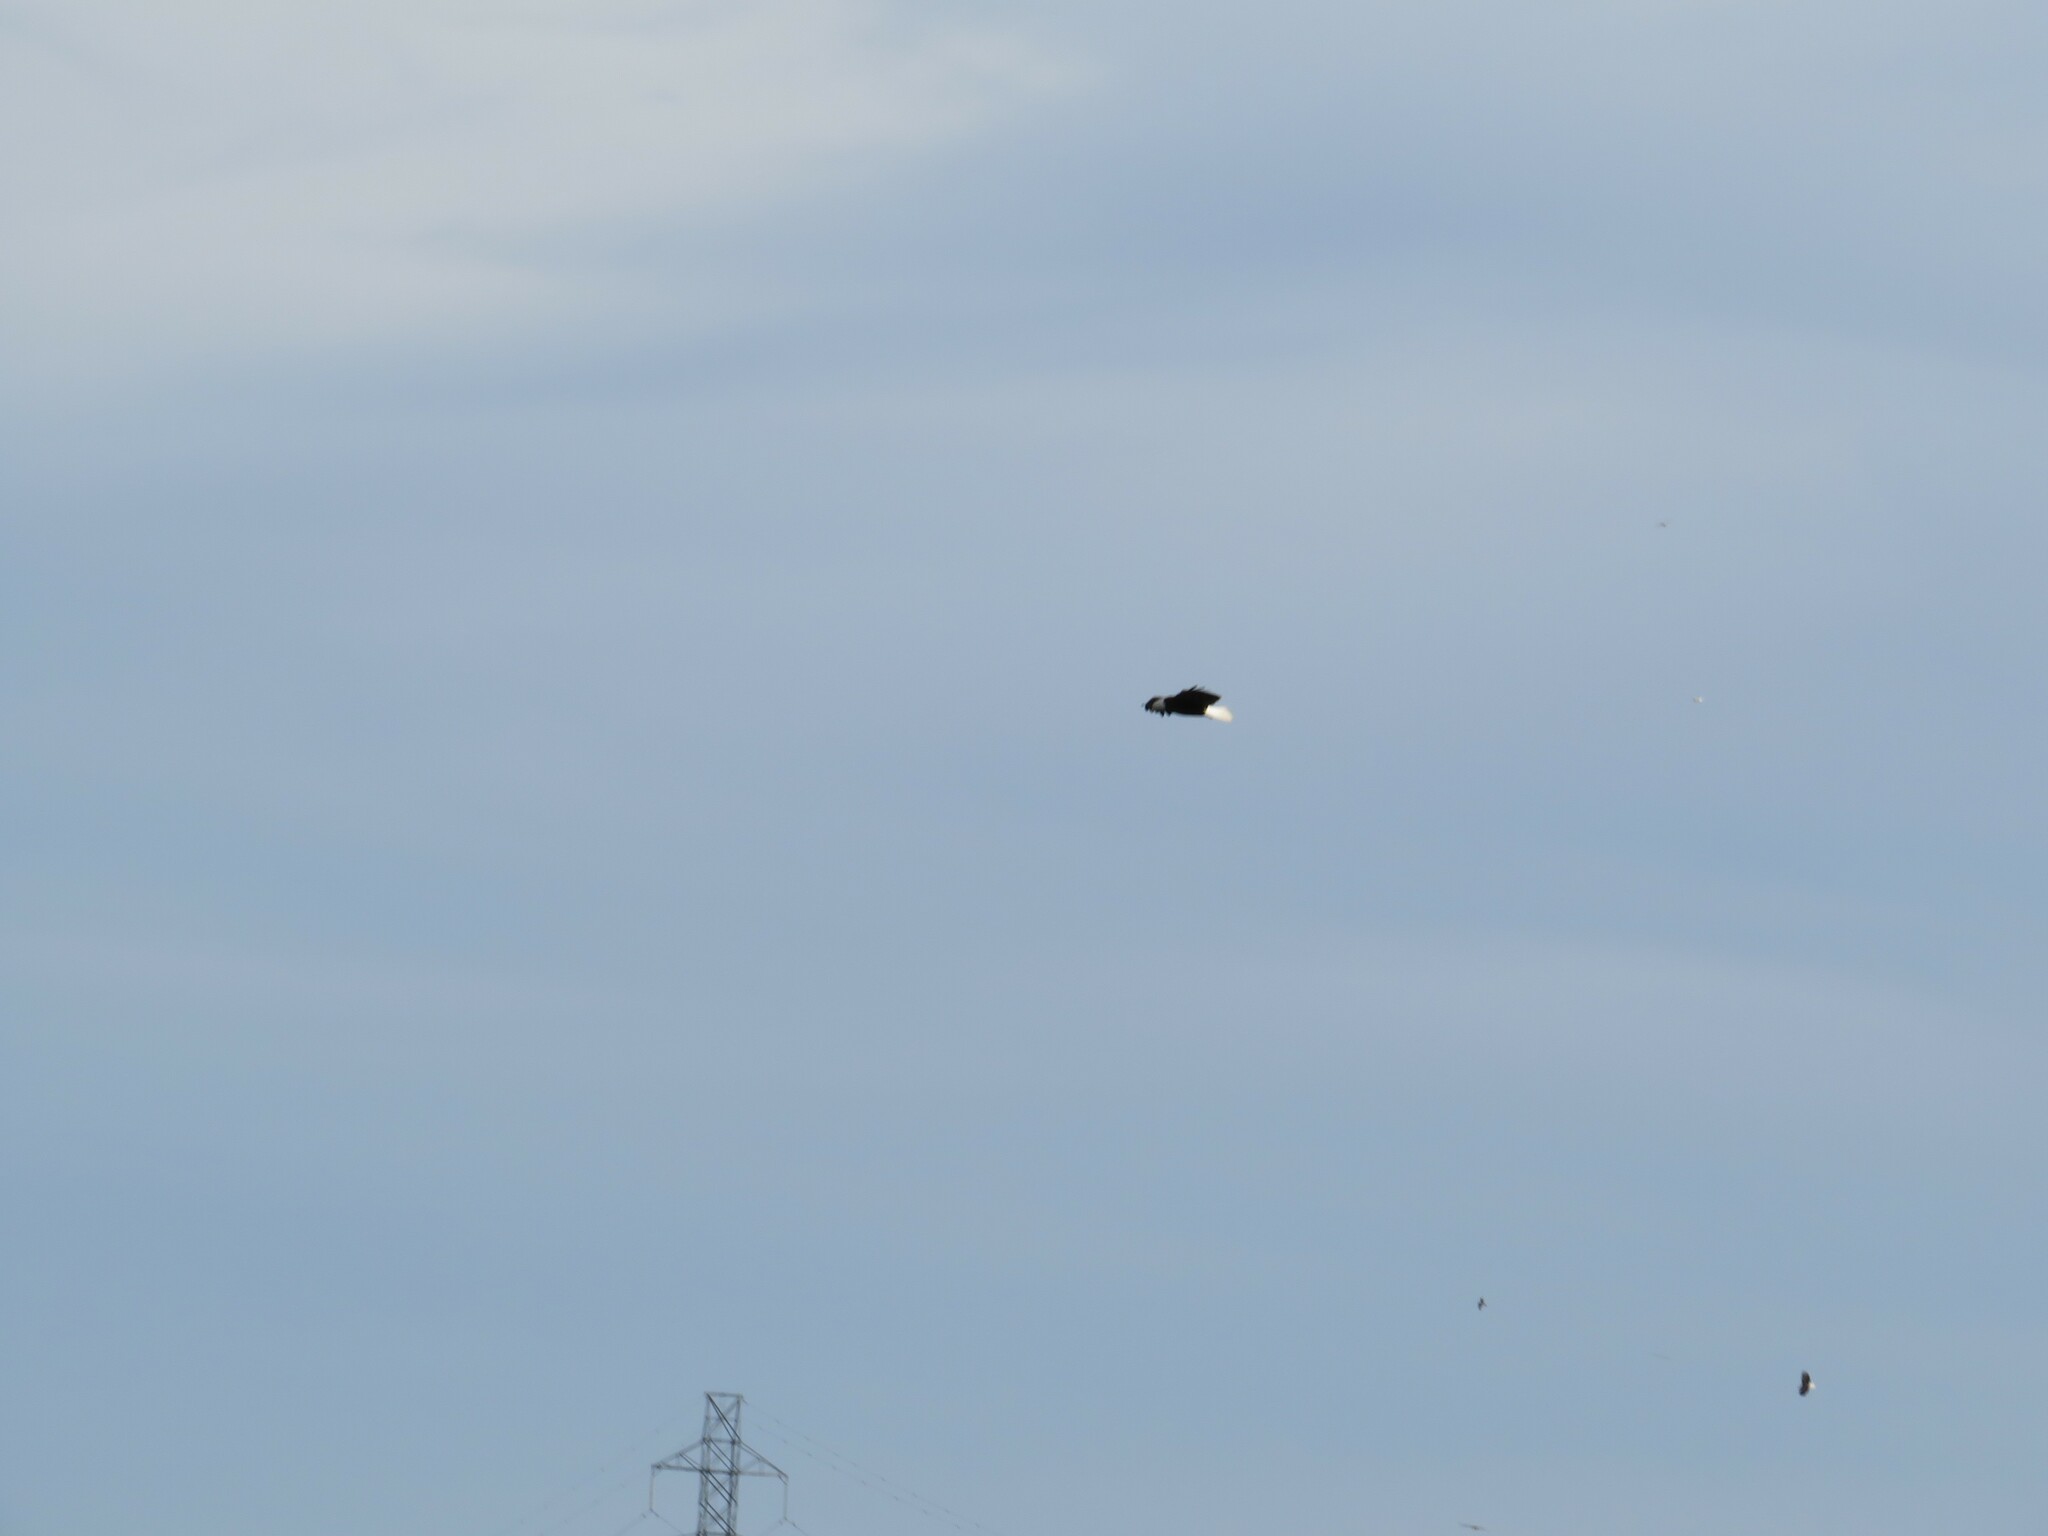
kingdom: Animalia
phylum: Chordata
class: Aves
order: Accipitriformes
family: Accipitridae
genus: Haliaeetus
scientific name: Haliaeetus leucocephalus
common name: Bald eagle
